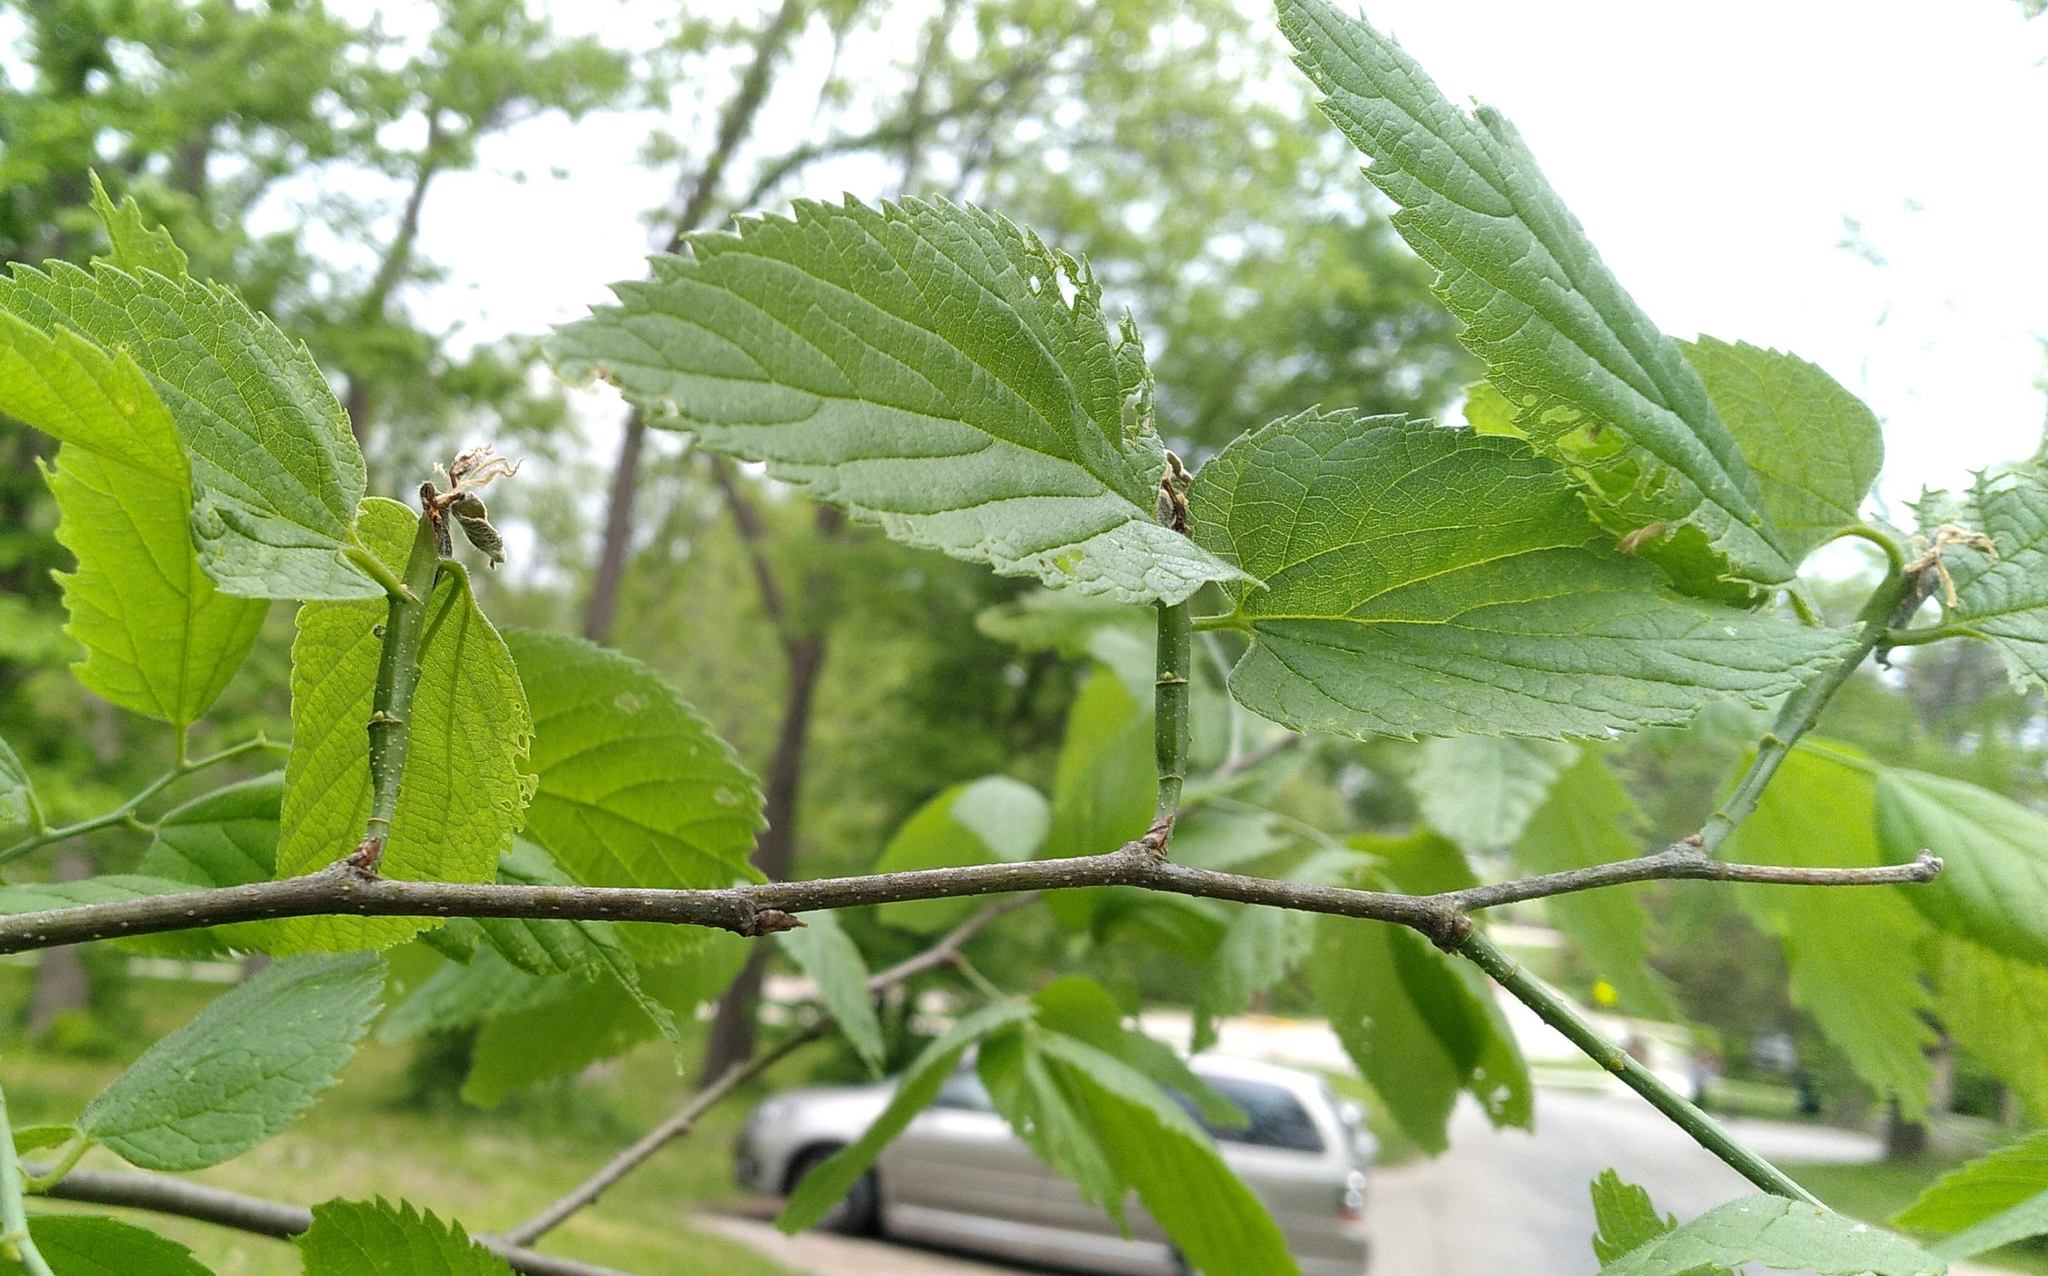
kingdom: Animalia
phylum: Arthropoda
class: Insecta
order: Diptera
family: Agromyzidae
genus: Agromyza
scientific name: Agromyza deserta
